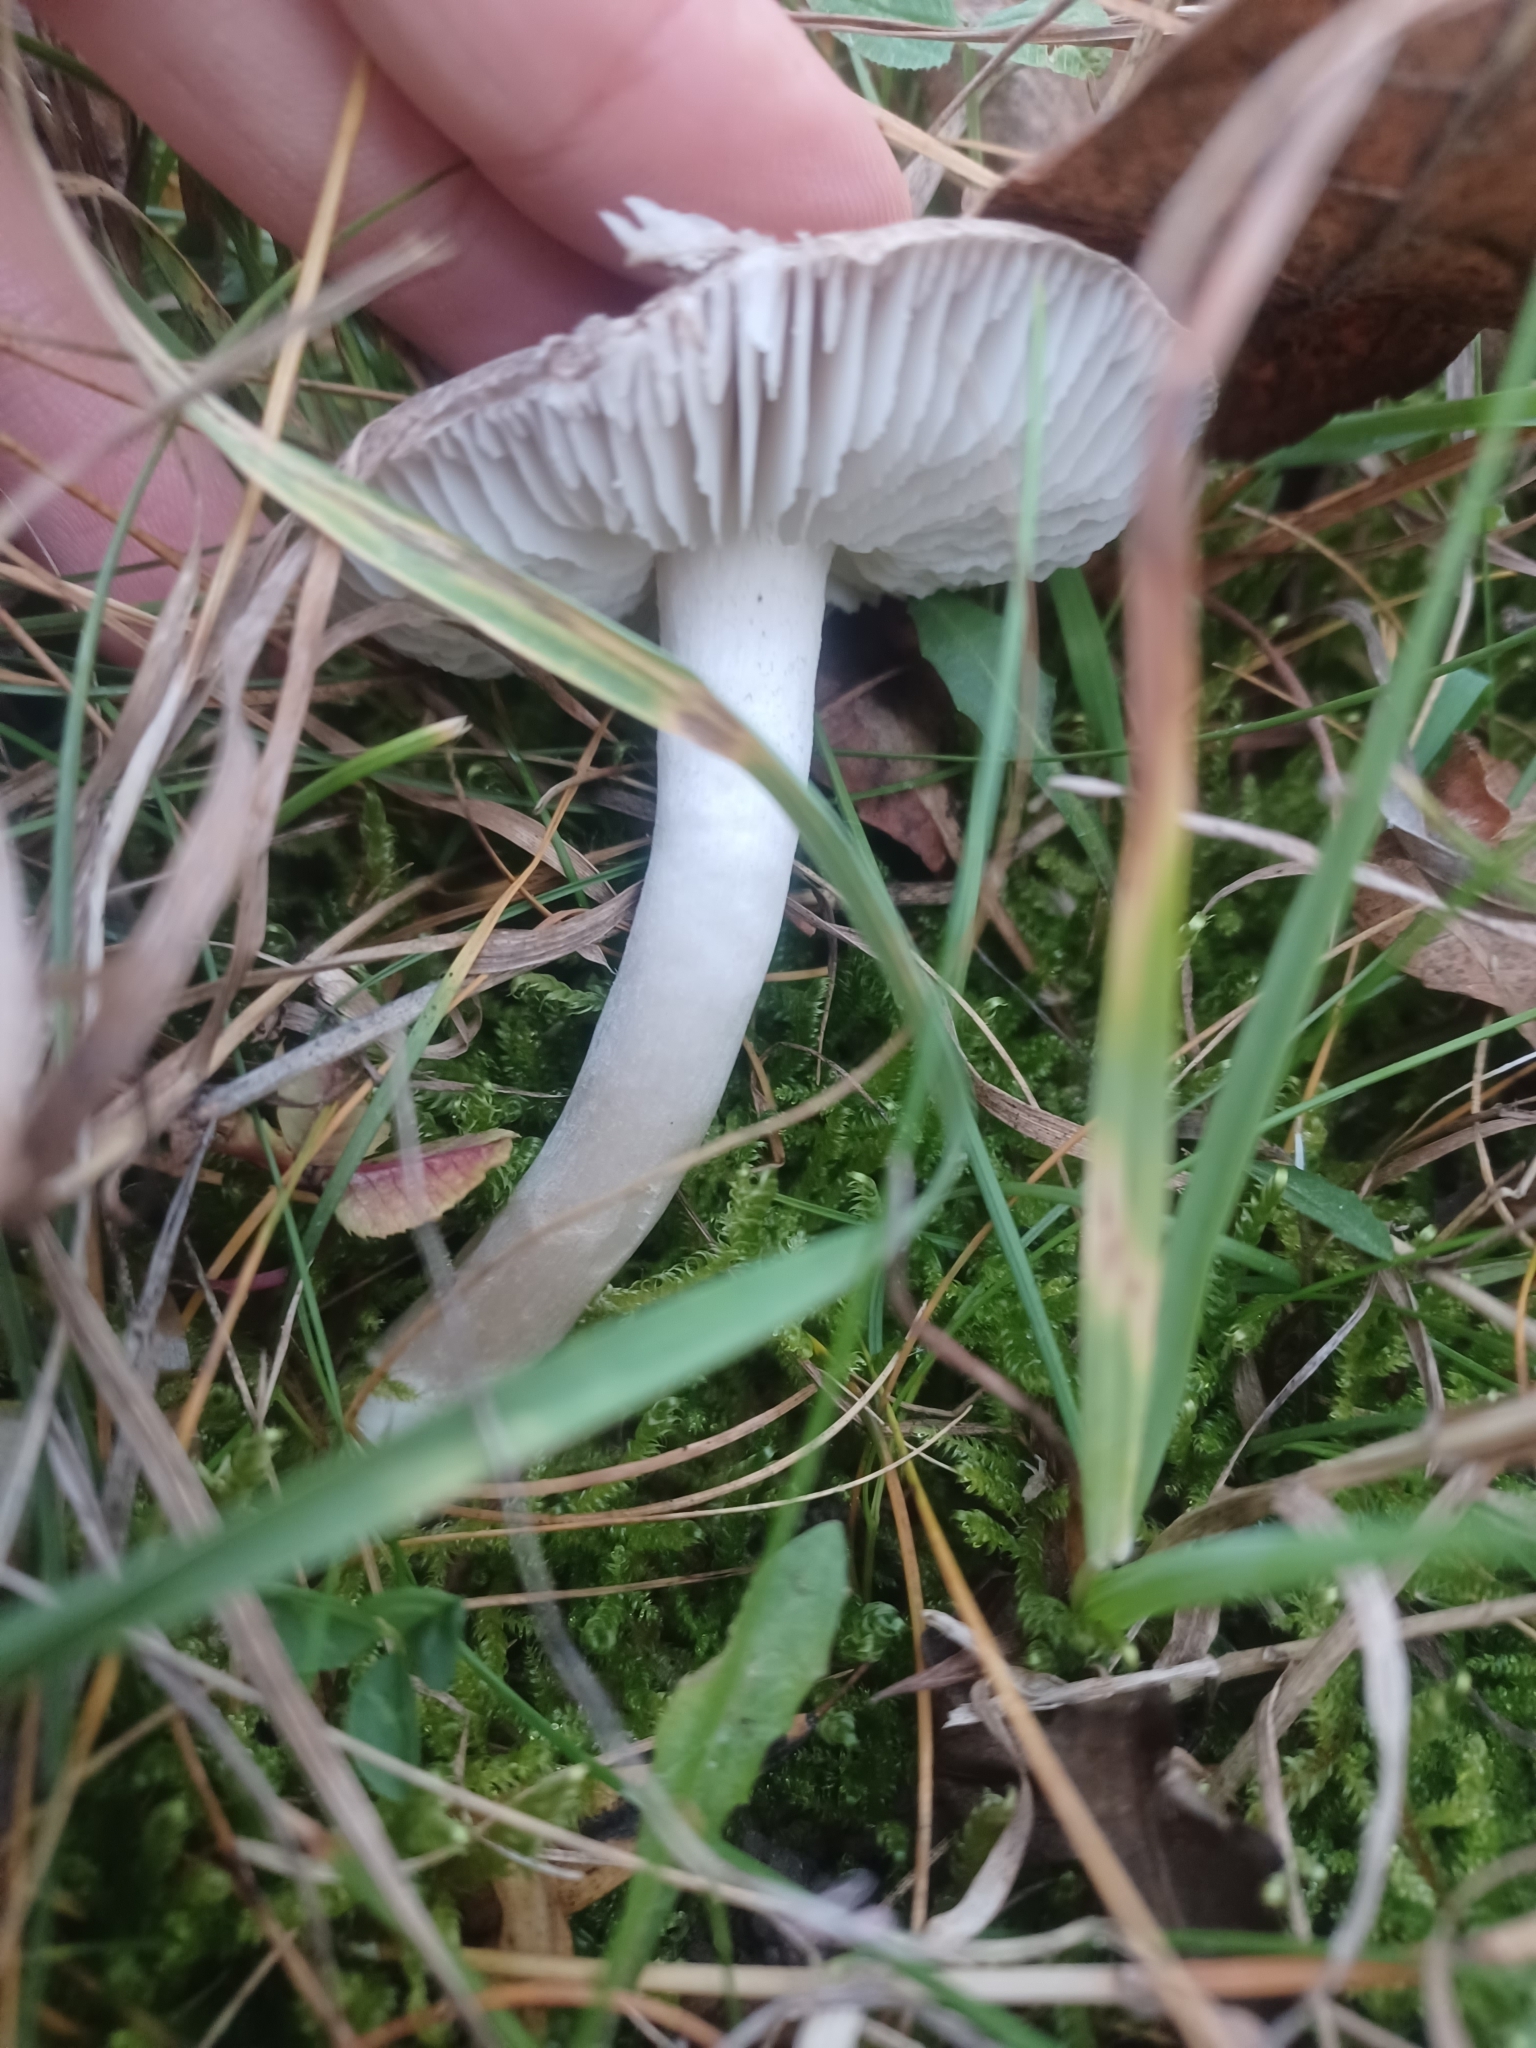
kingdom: Fungi
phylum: Basidiomycota
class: Agaricomycetes
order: Agaricales
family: Tricholomataceae
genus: Tricholoma
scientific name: Tricholoma terreum
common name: Grey knight
